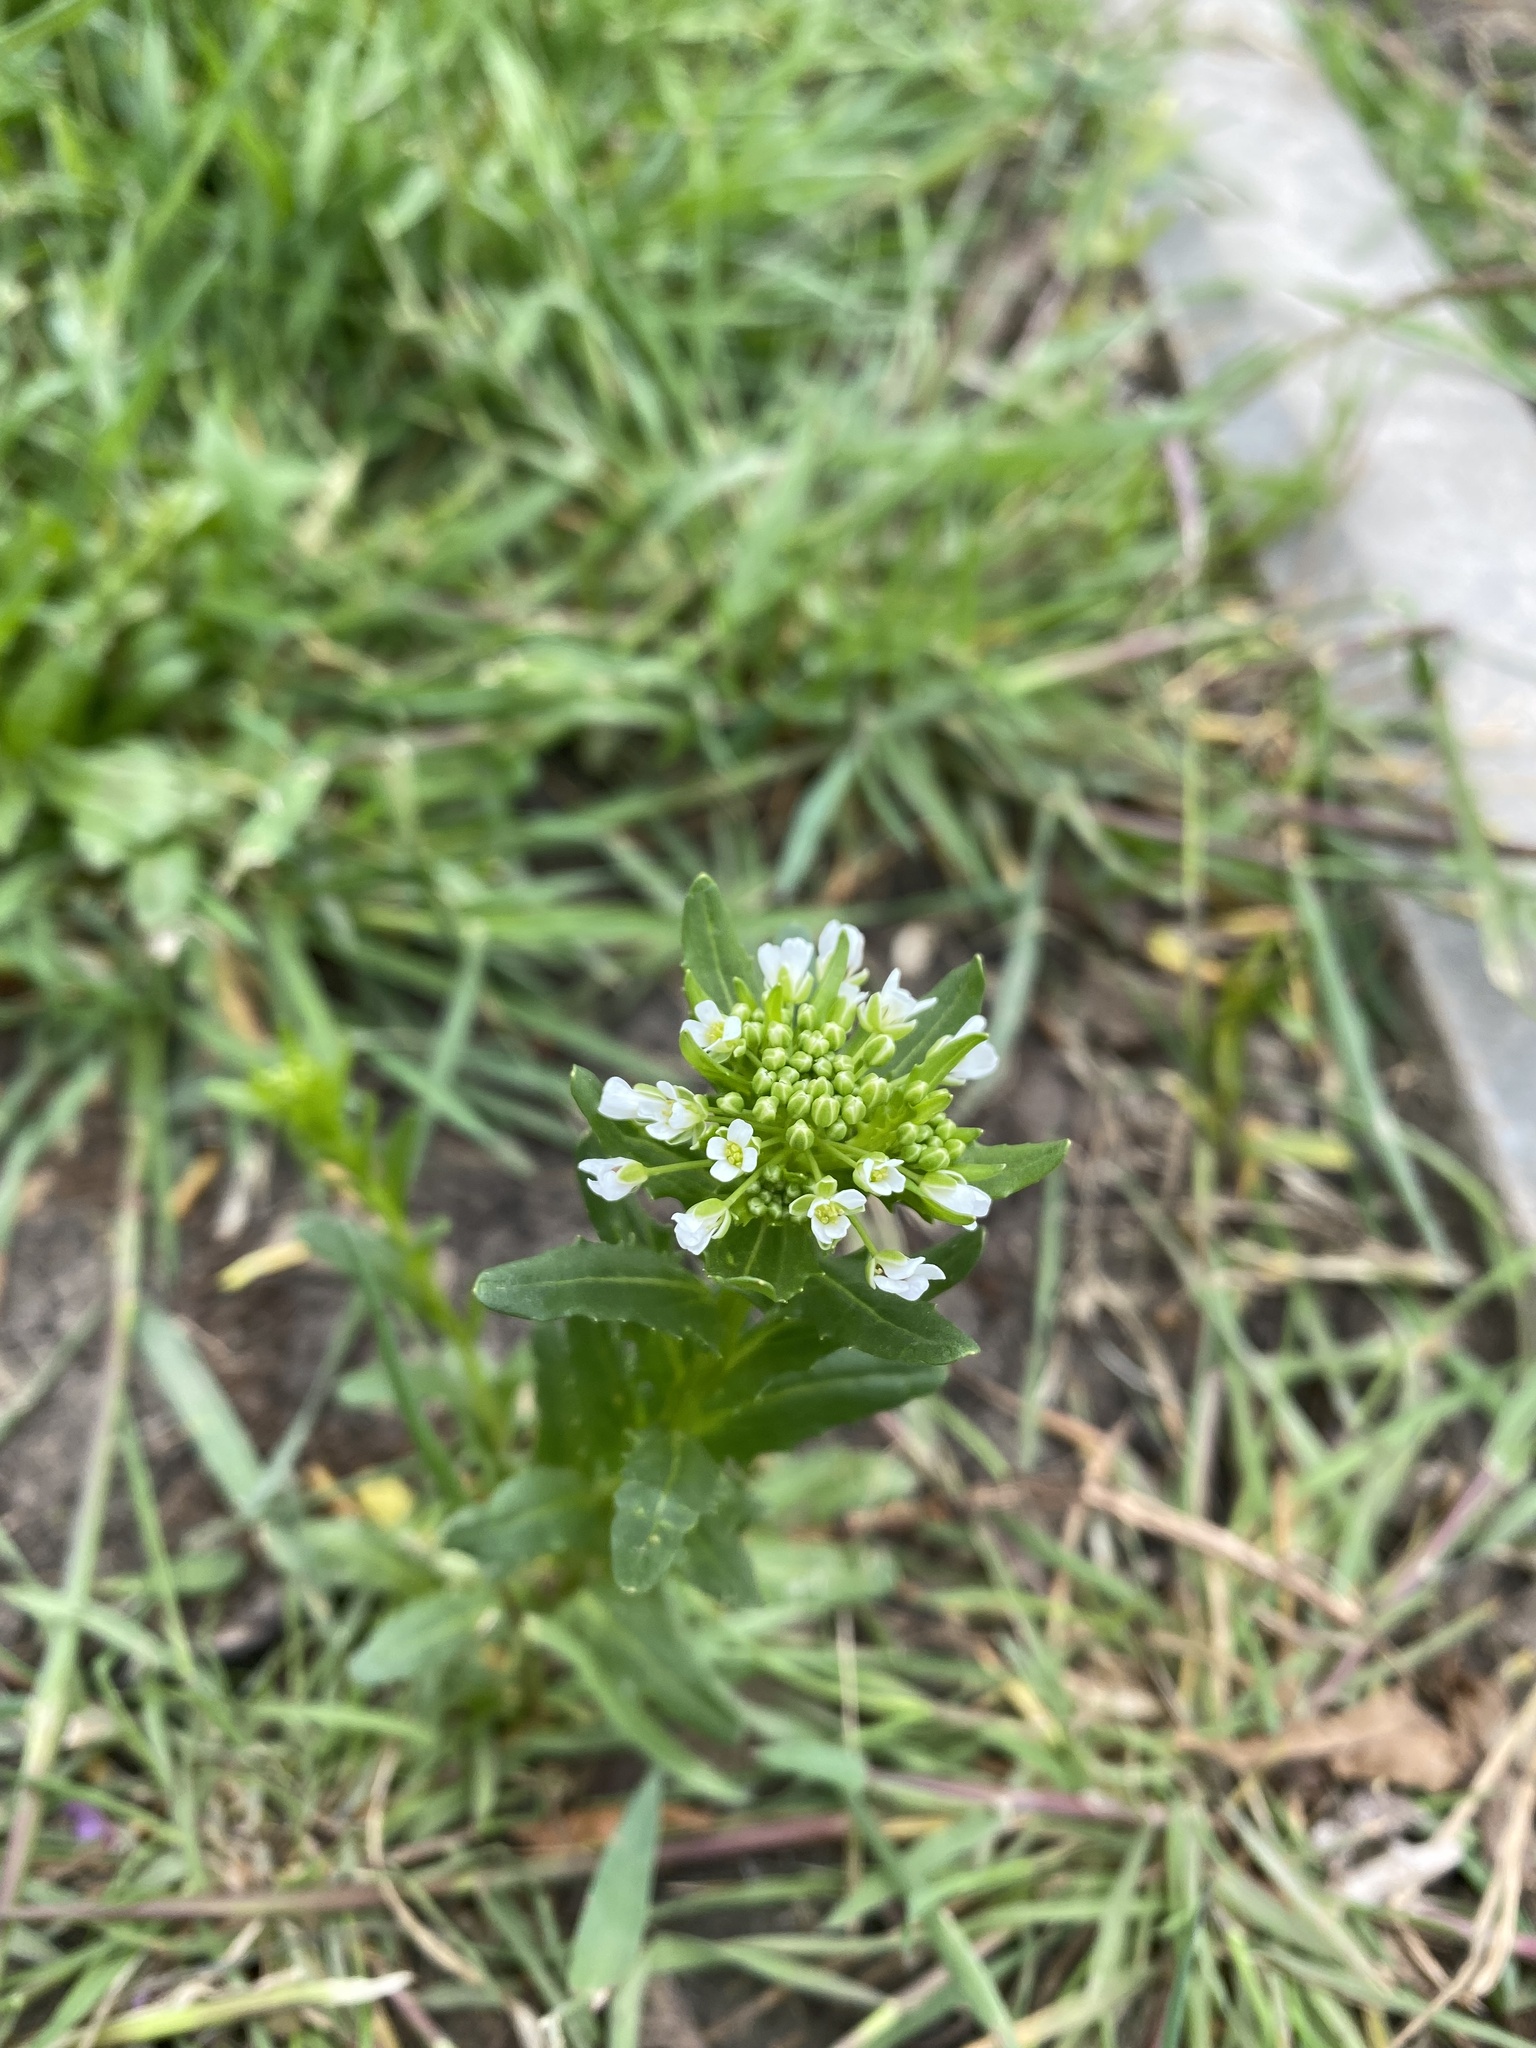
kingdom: Plantae
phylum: Tracheophyta
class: Magnoliopsida
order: Brassicales
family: Brassicaceae
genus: Thlaspi
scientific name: Thlaspi arvense
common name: Field pennycress
